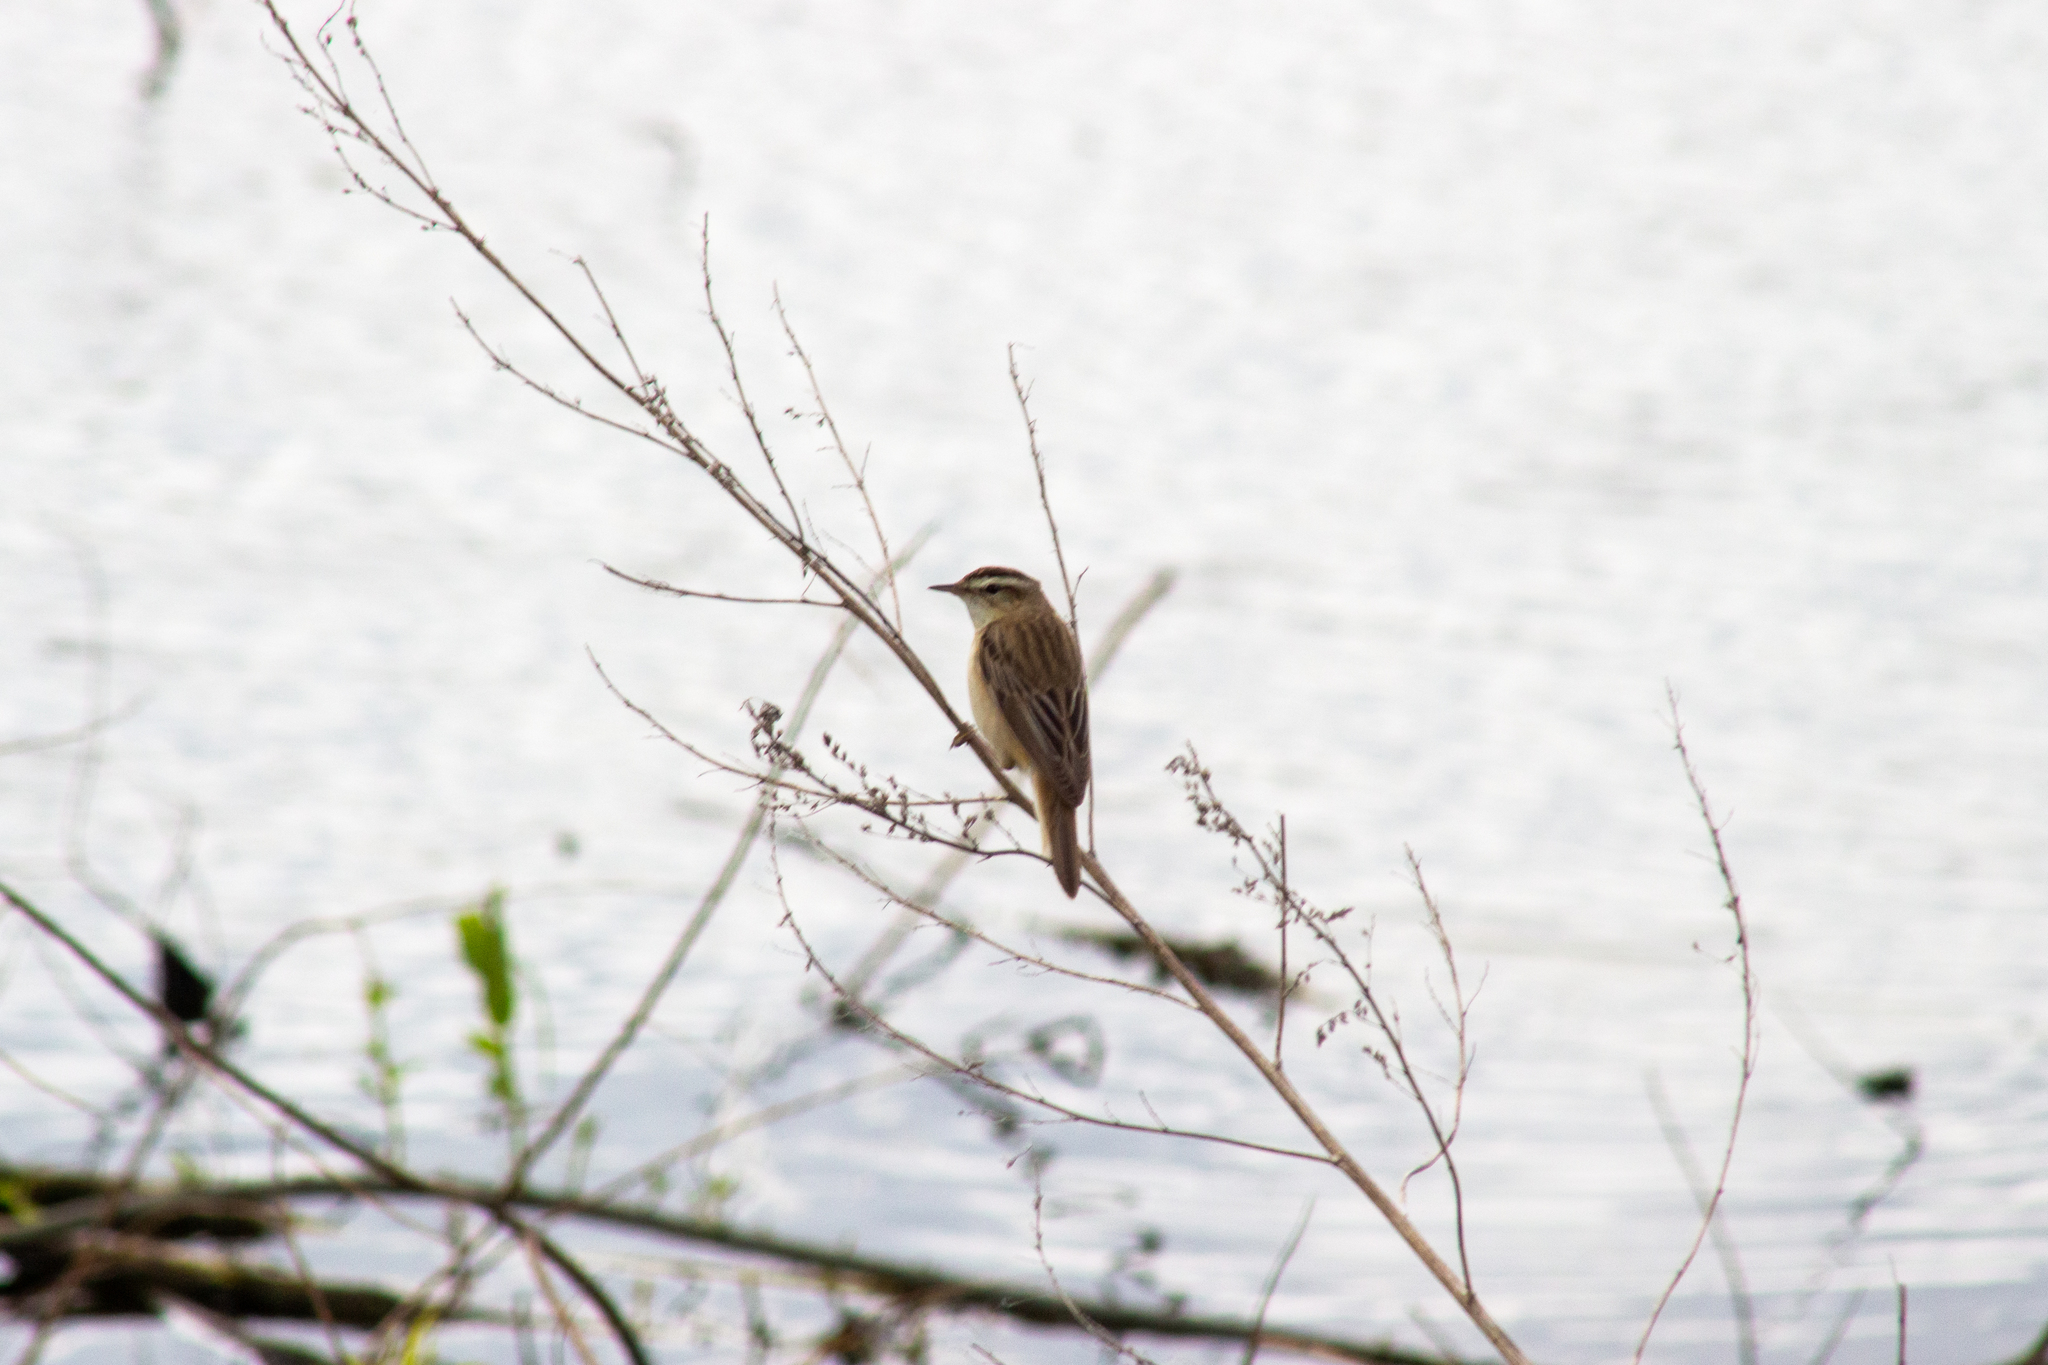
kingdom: Animalia
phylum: Chordata
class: Aves
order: Passeriformes
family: Acrocephalidae
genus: Acrocephalus
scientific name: Acrocephalus schoenobaenus
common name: Sedge warbler
